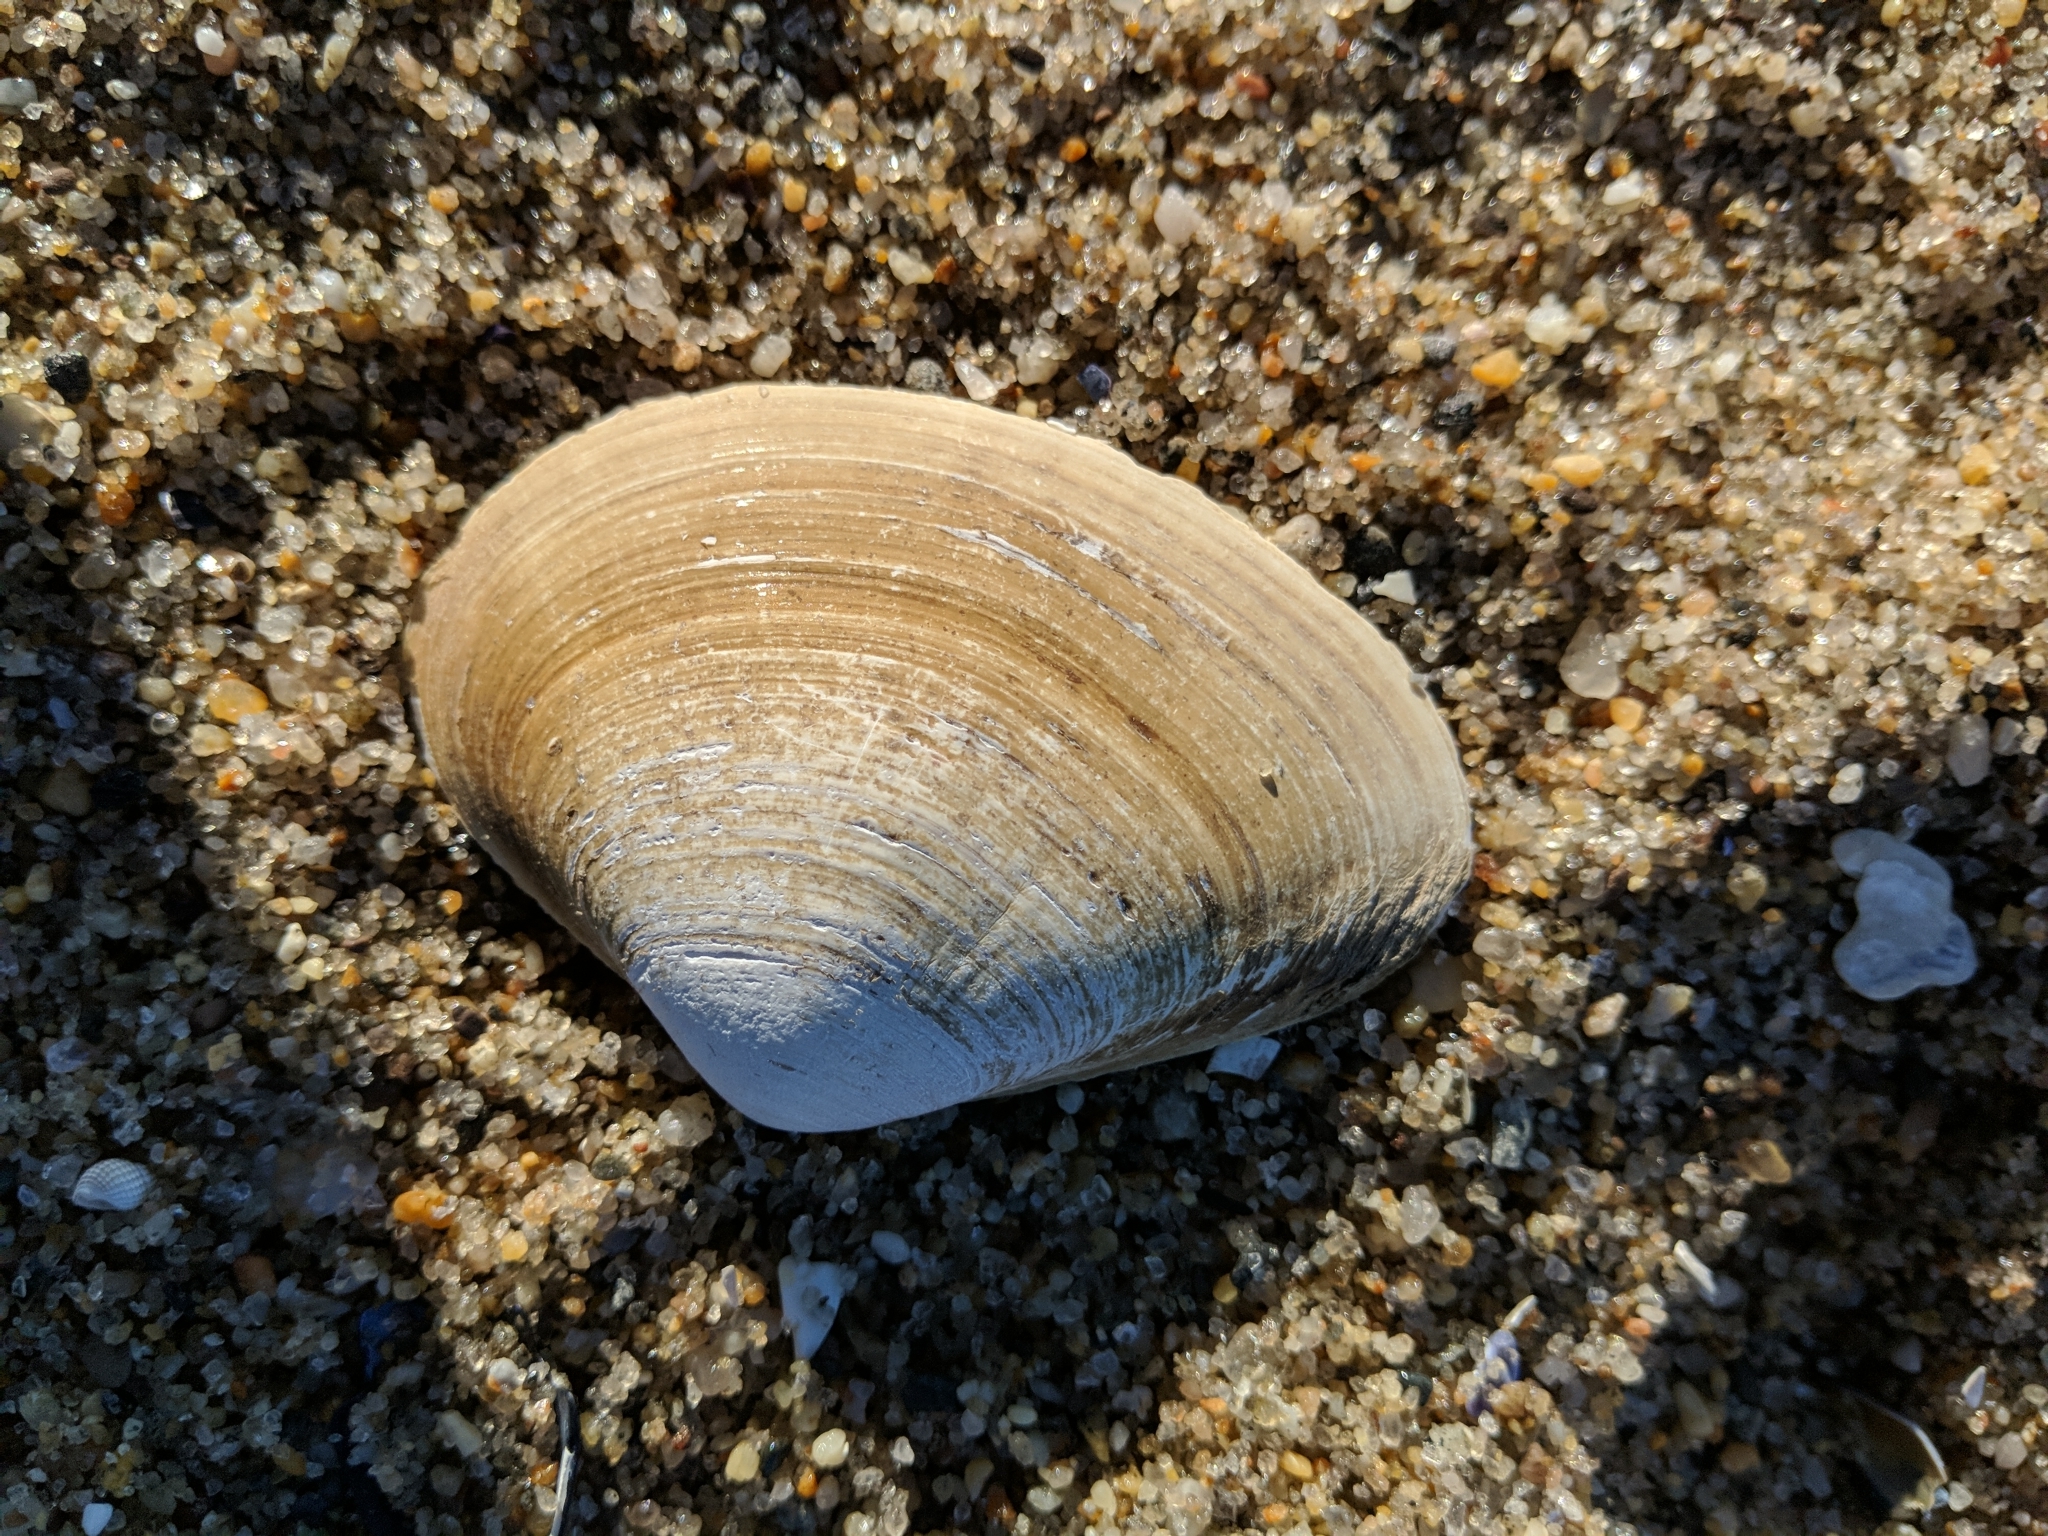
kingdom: Animalia
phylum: Mollusca
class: Bivalvia
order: Venerida
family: Mactridae
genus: Spisula
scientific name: Spisula solidissima
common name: Atlantic surf clam
